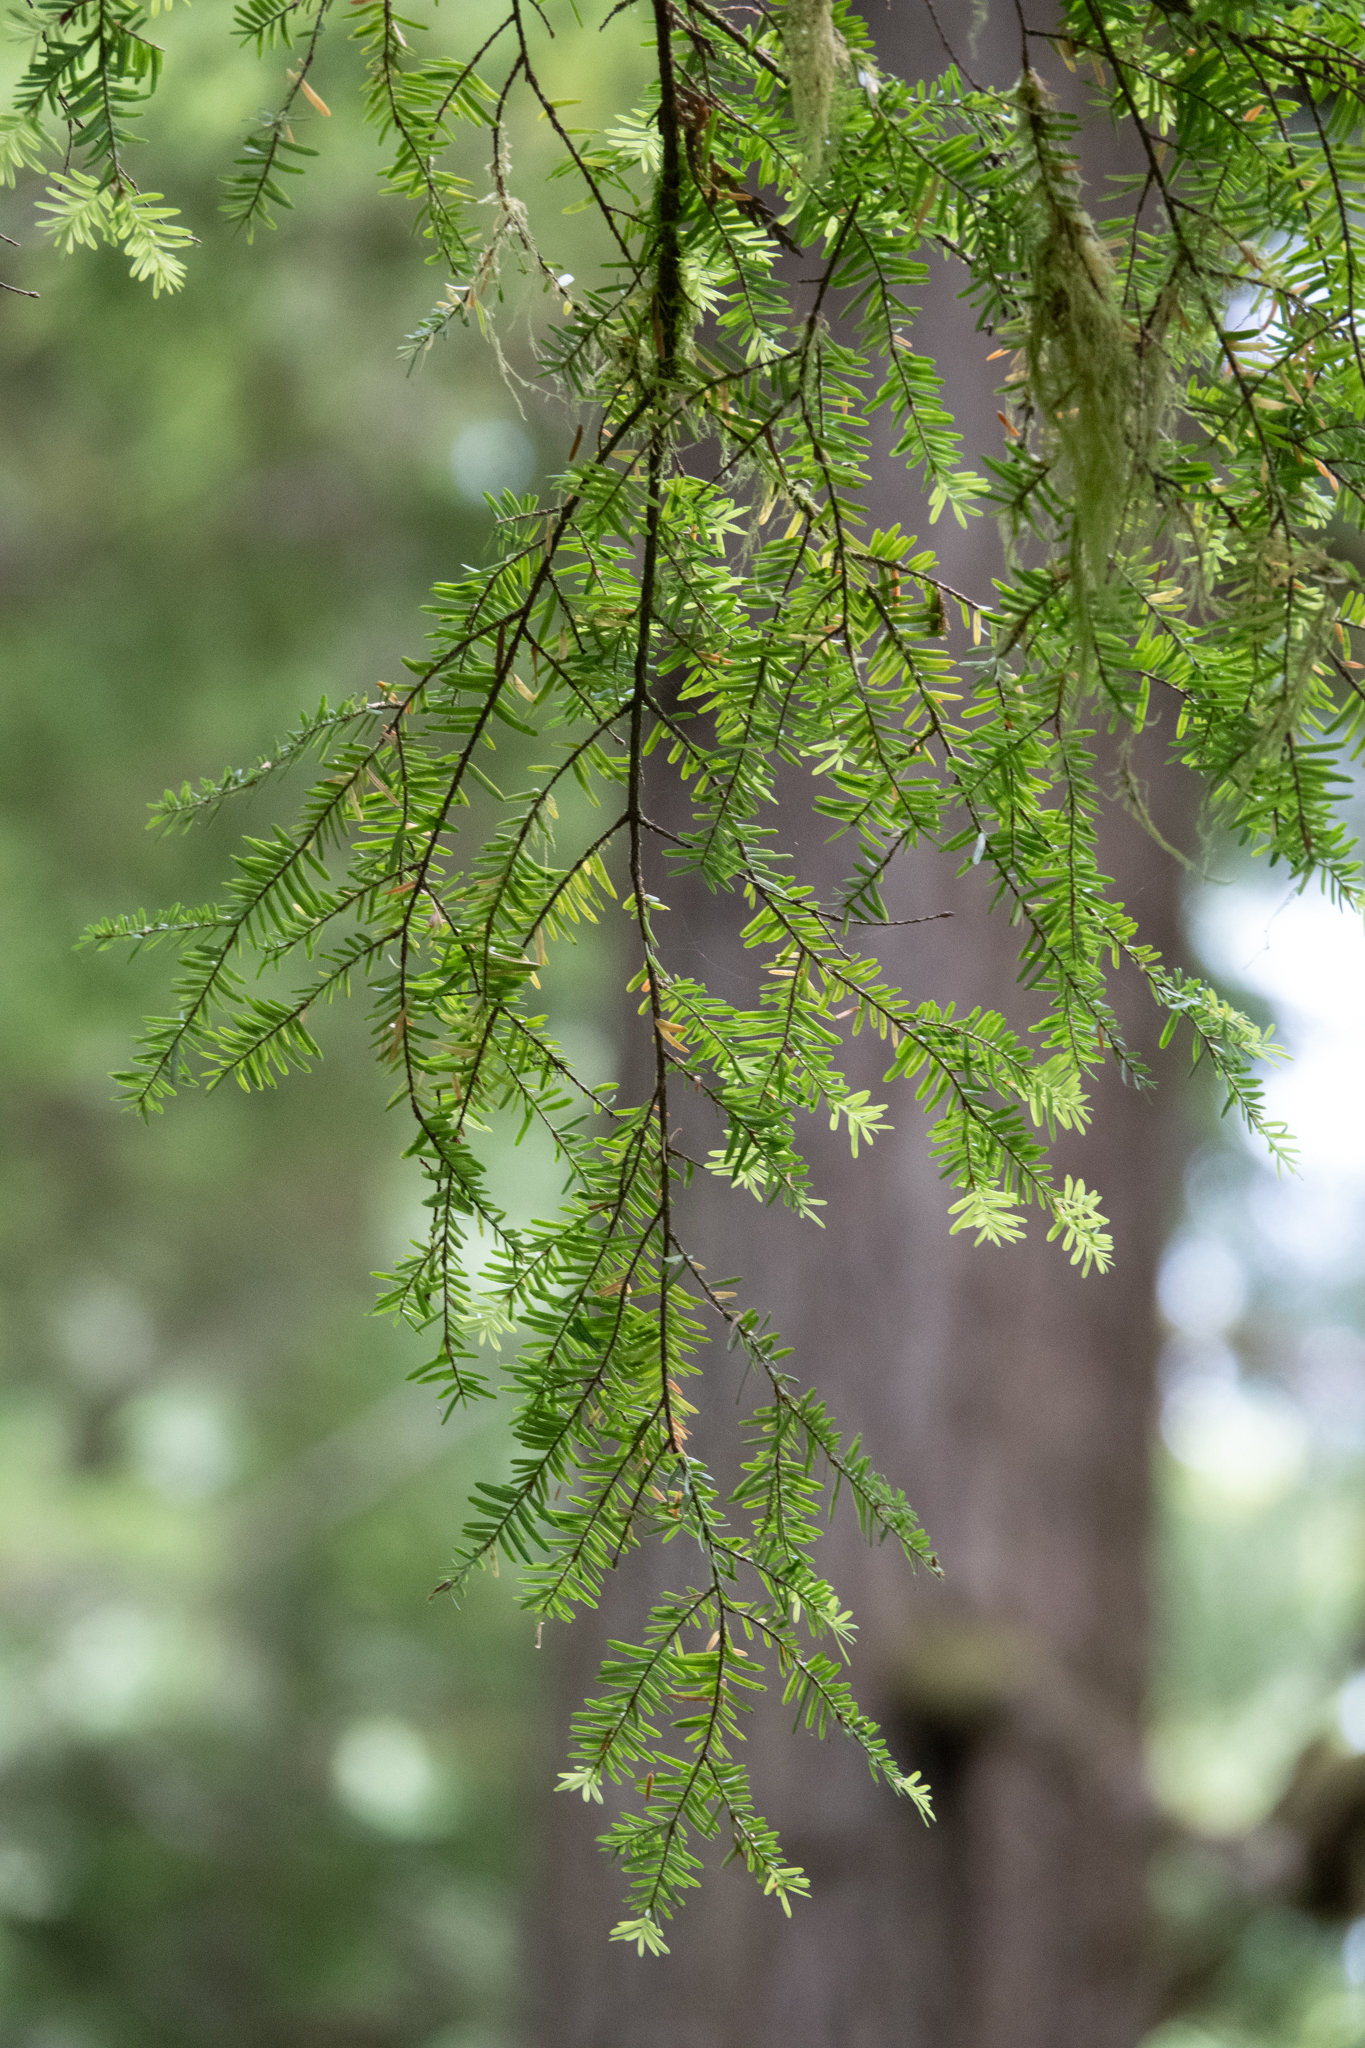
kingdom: Plantae
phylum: Tracheophyta
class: Pinopsida
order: Pinales
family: Pinaceae
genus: Tsuga
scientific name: Tsuga heterophylla
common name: Western hemlock
